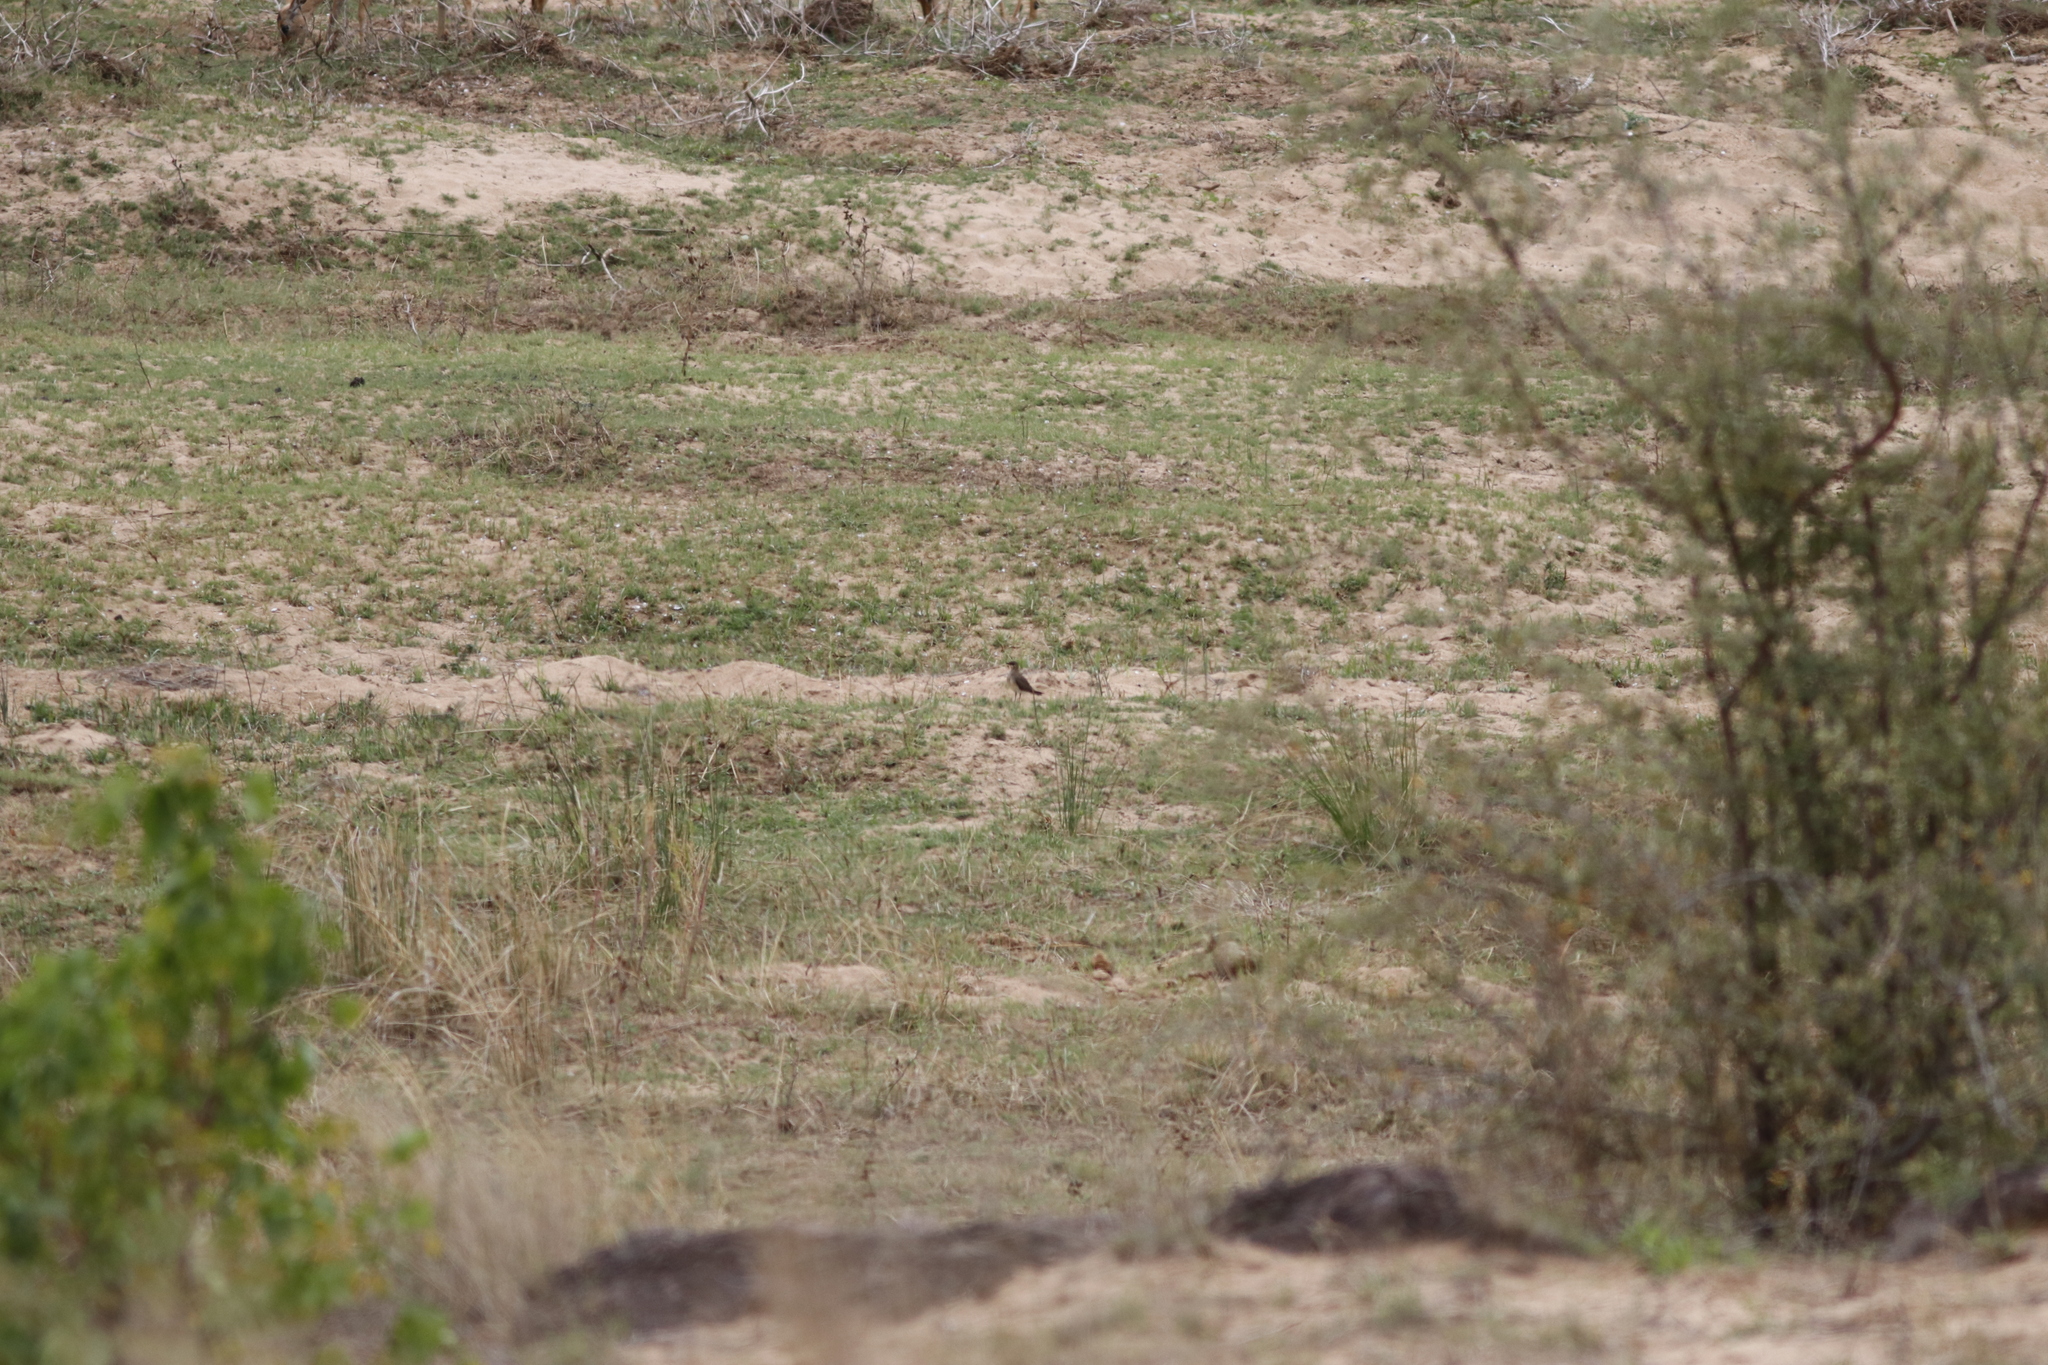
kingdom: Animalia
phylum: Chordata
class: Aves
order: Charadriiformes
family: Glareolidae
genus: Glareola
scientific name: Glareola pratincola
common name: Collared pratincole
